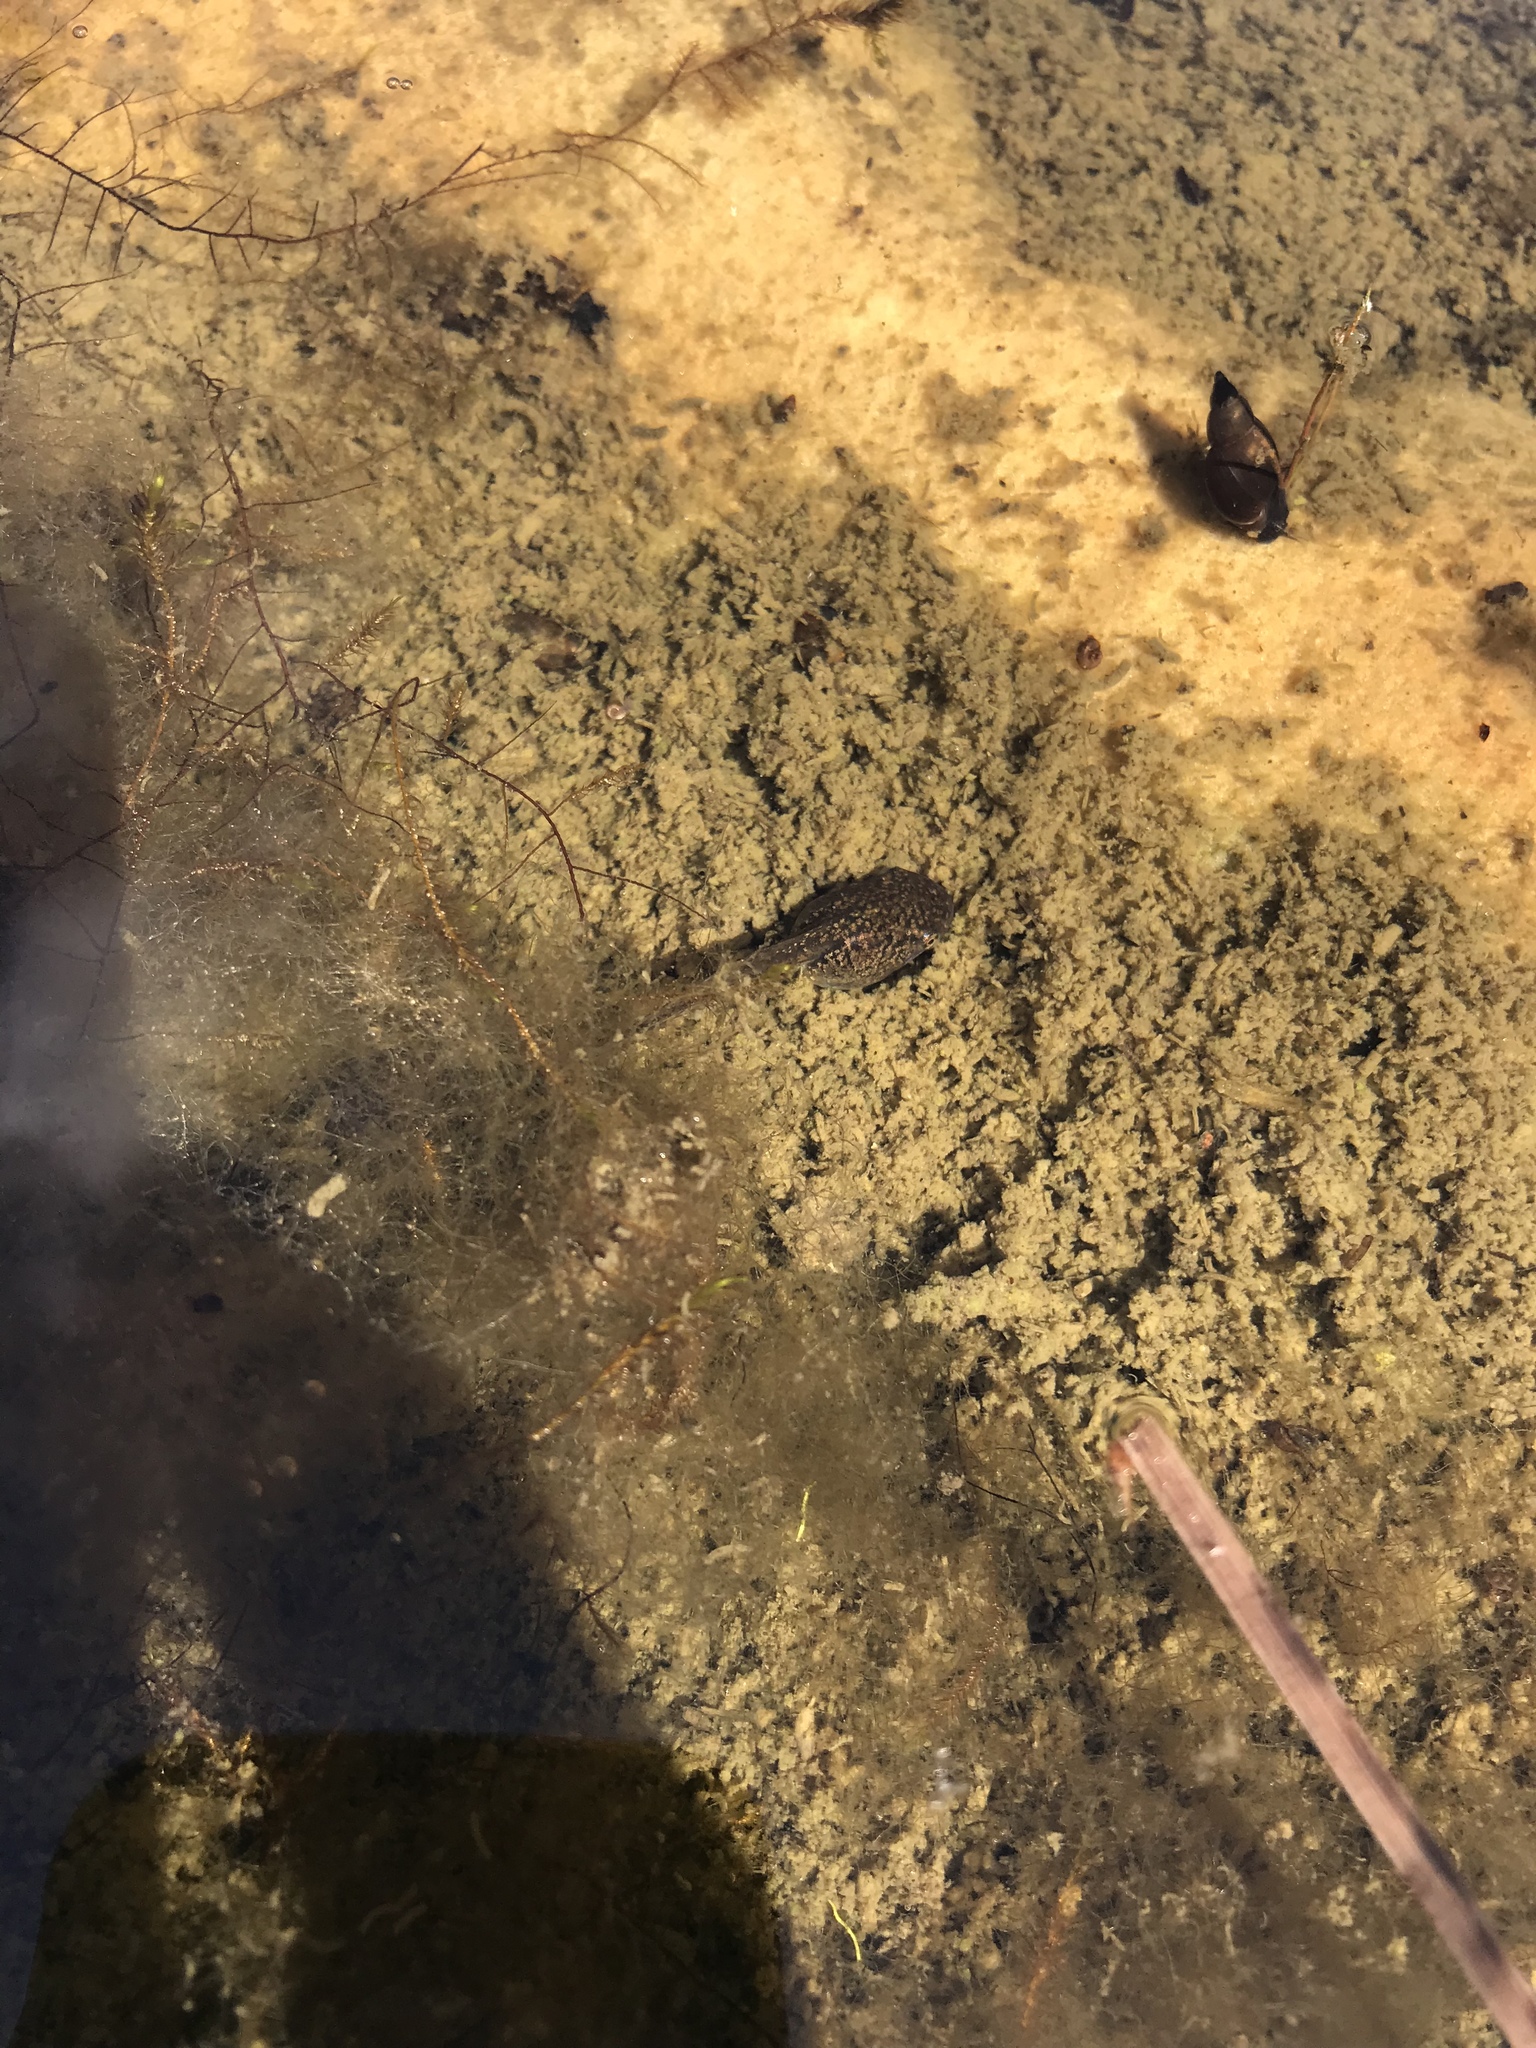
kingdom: Animalia
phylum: Chordata
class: Amphibia
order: Anura
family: Ranidae
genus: Lithobates
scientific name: Lithobates clamitans
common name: Green frog
